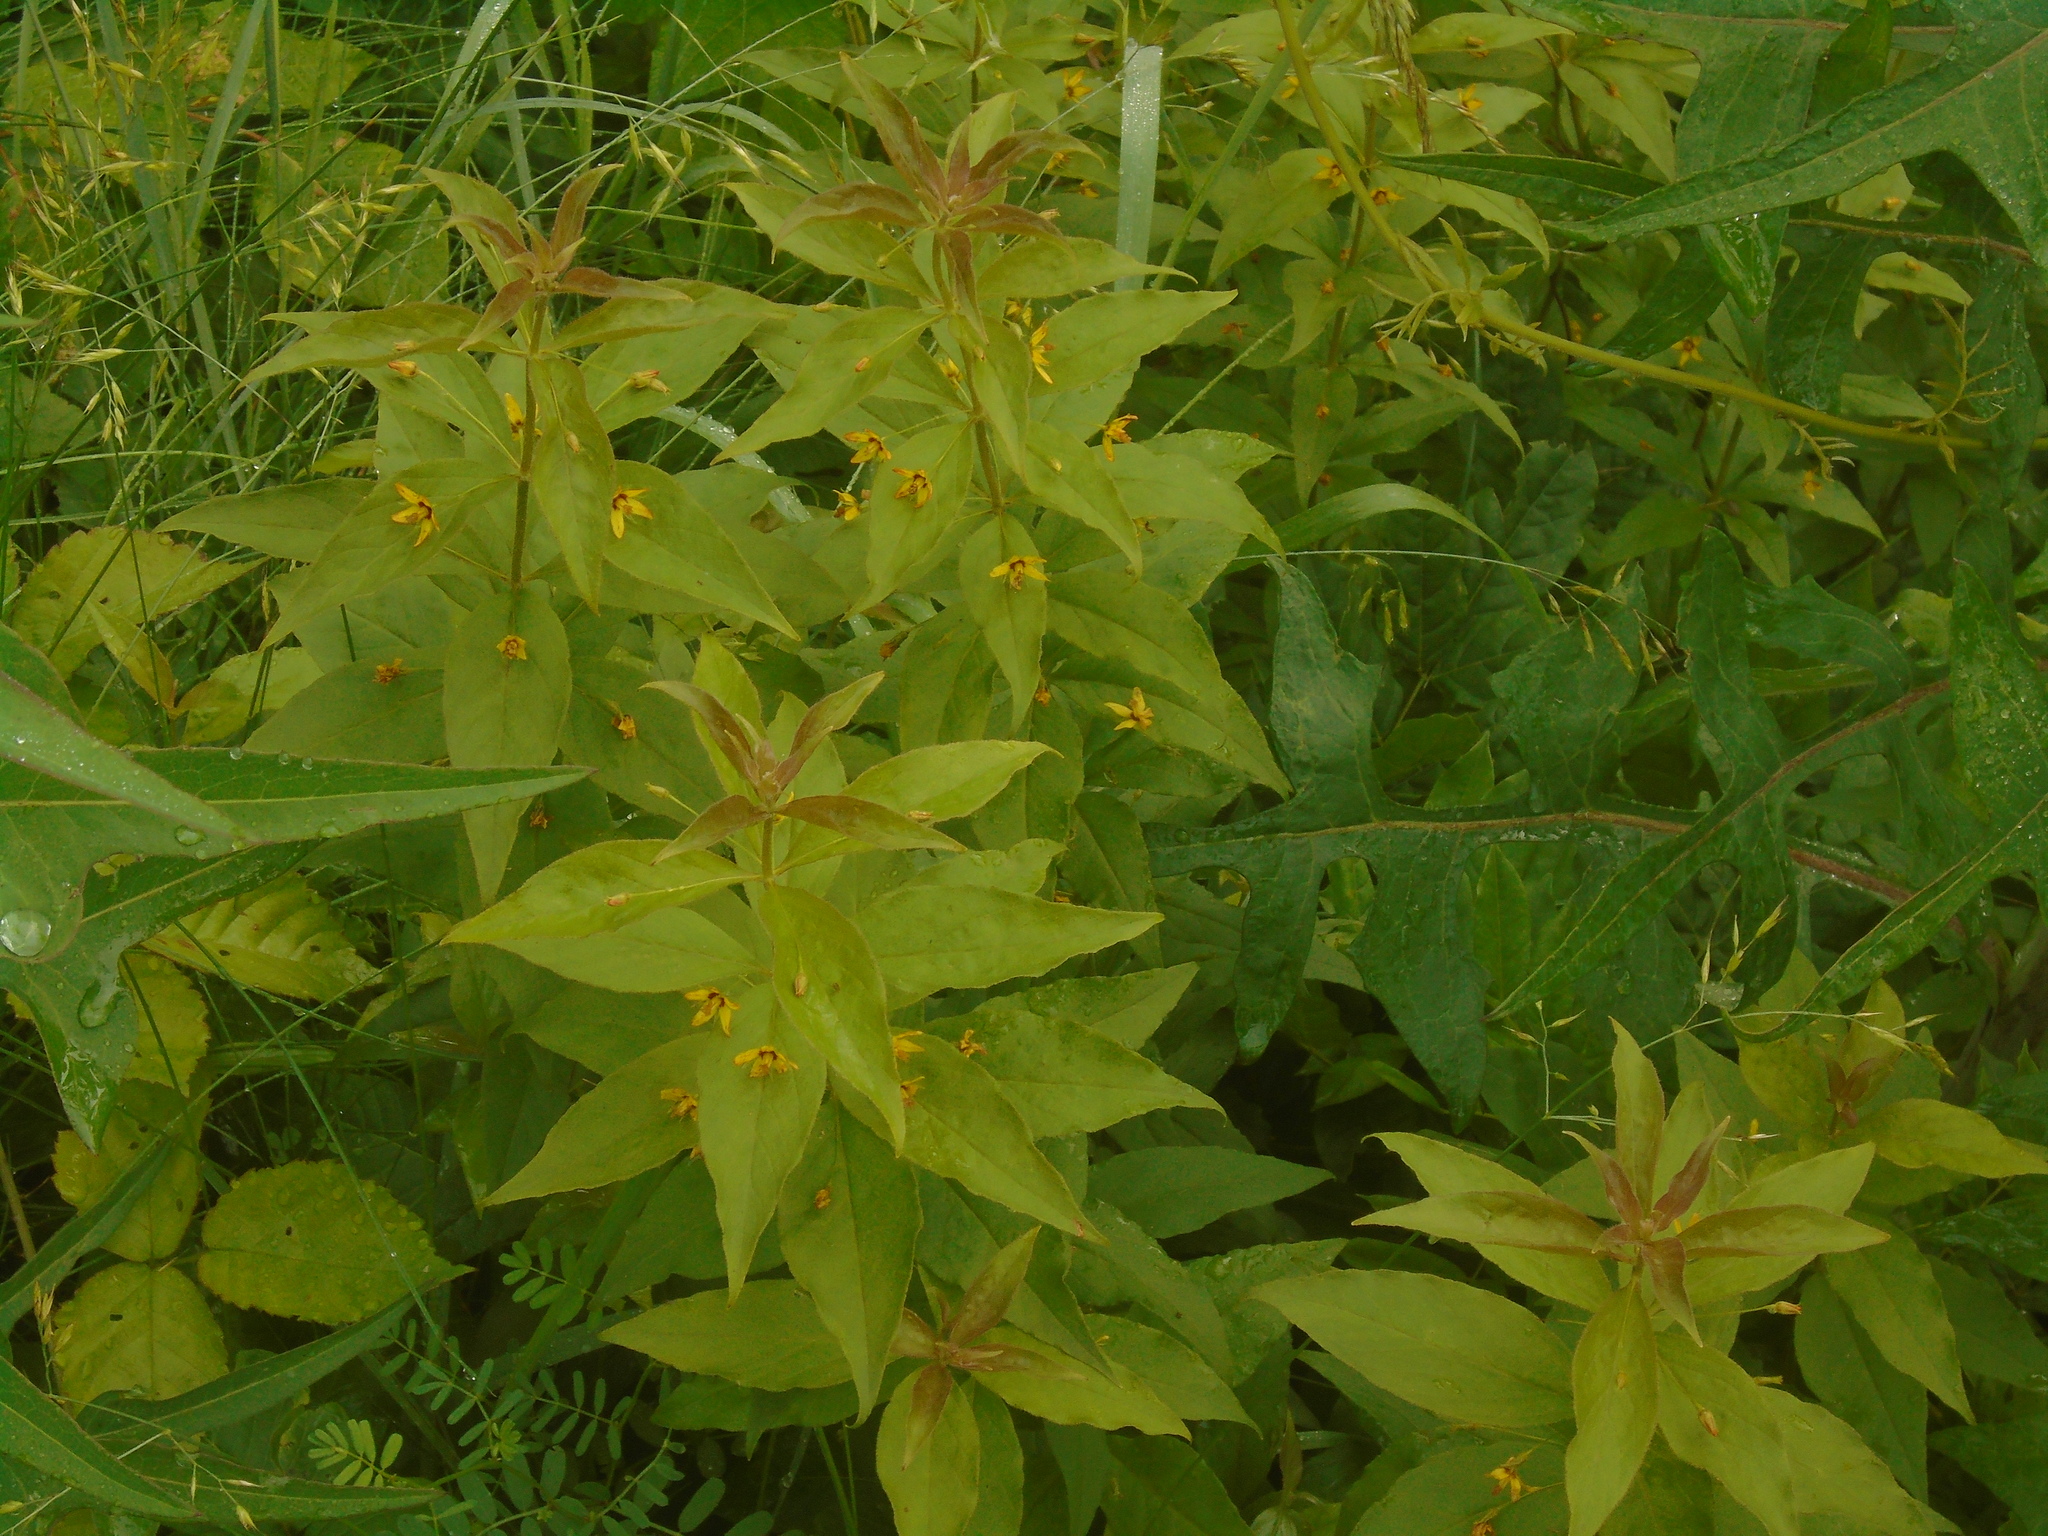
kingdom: Plantae
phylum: Tracheophyta
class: Magnoliopsida
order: Ericales
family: Primulaceae
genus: Lysimachia
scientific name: Lysimachia quadrifolia
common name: Whorled loosestrife
